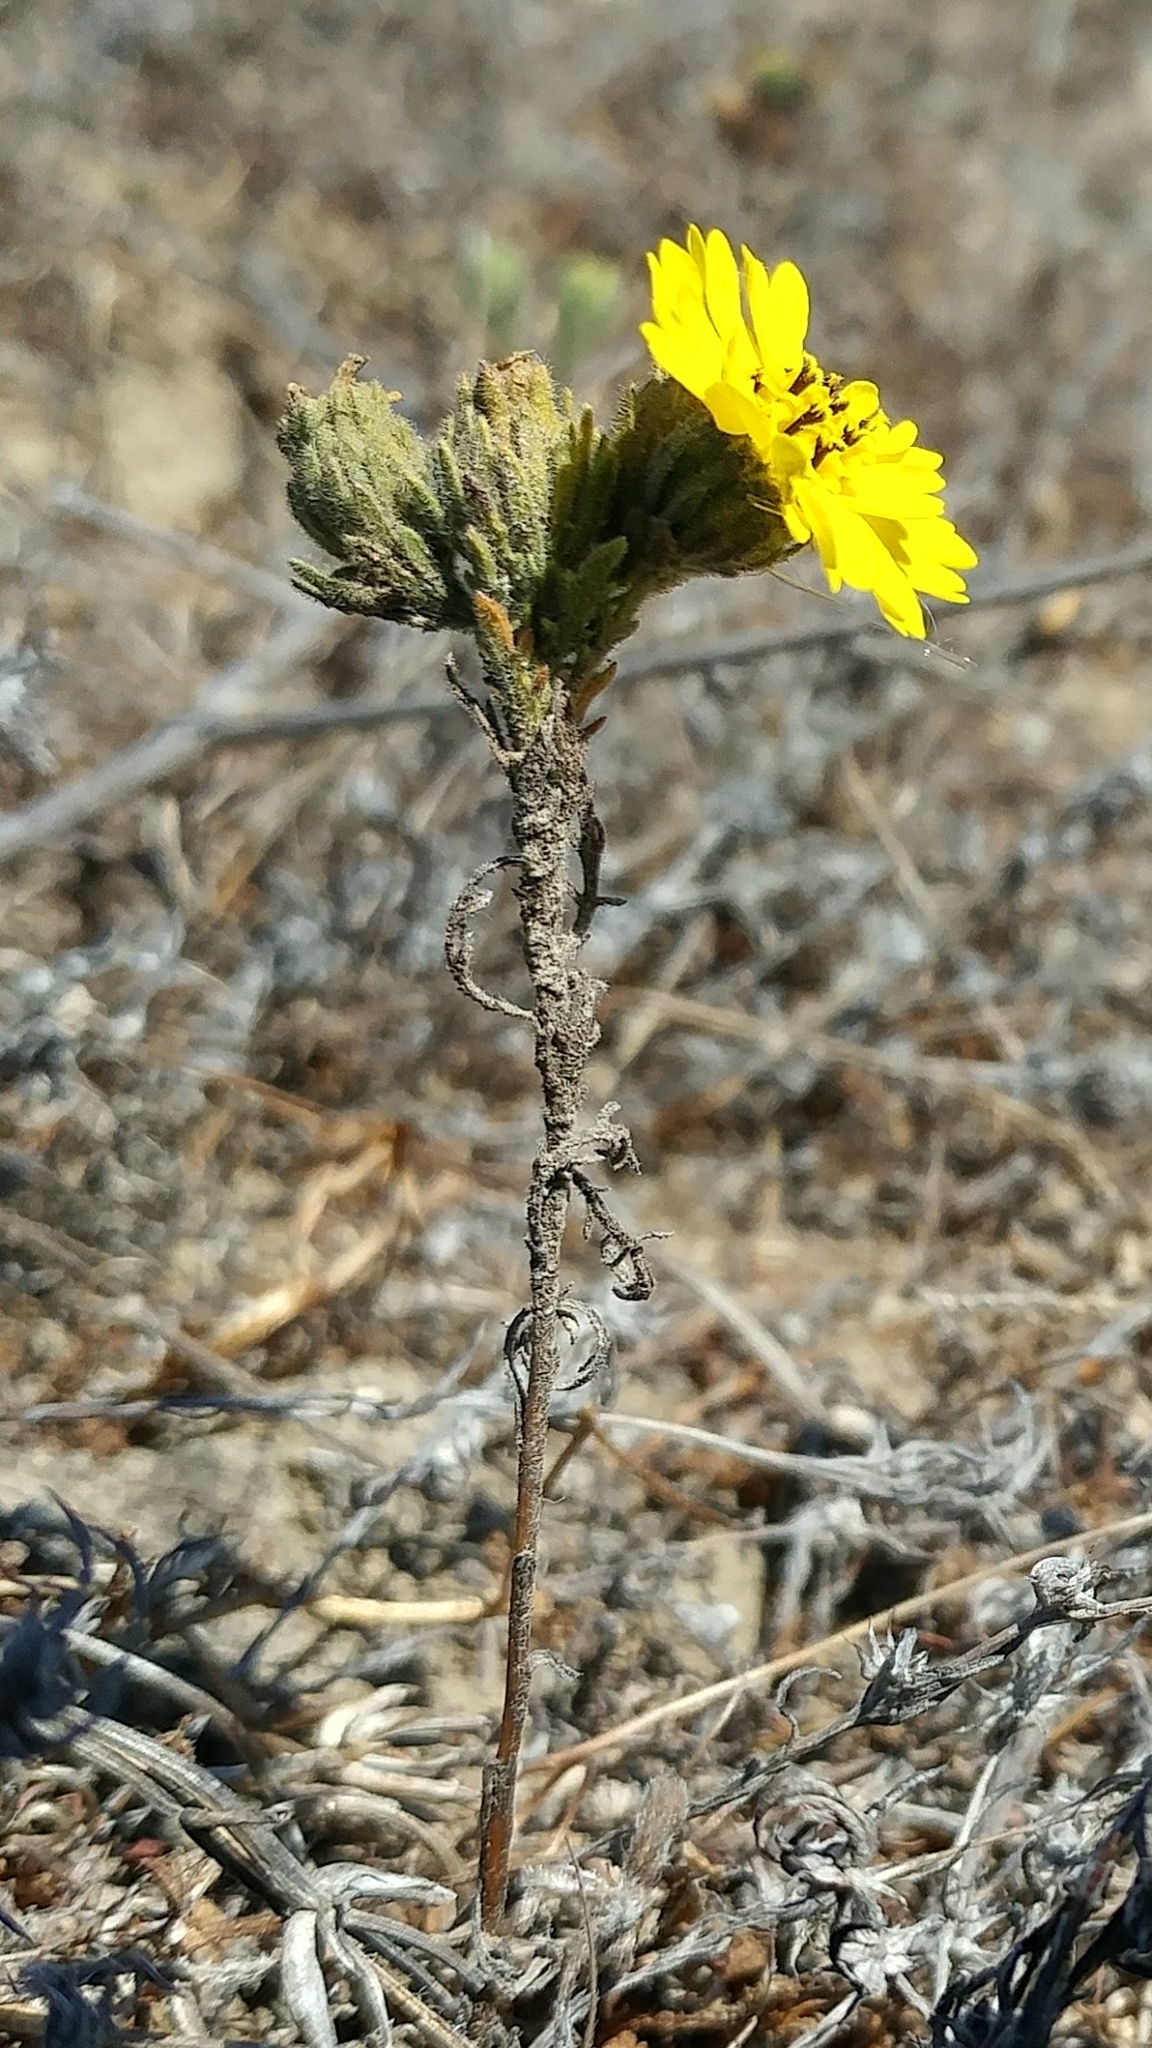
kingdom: Plantae
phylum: Tracheophyta
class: Magnoliopsida
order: Asterales
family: Asteraceae
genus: Deinandra
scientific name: Deinandra increscens
